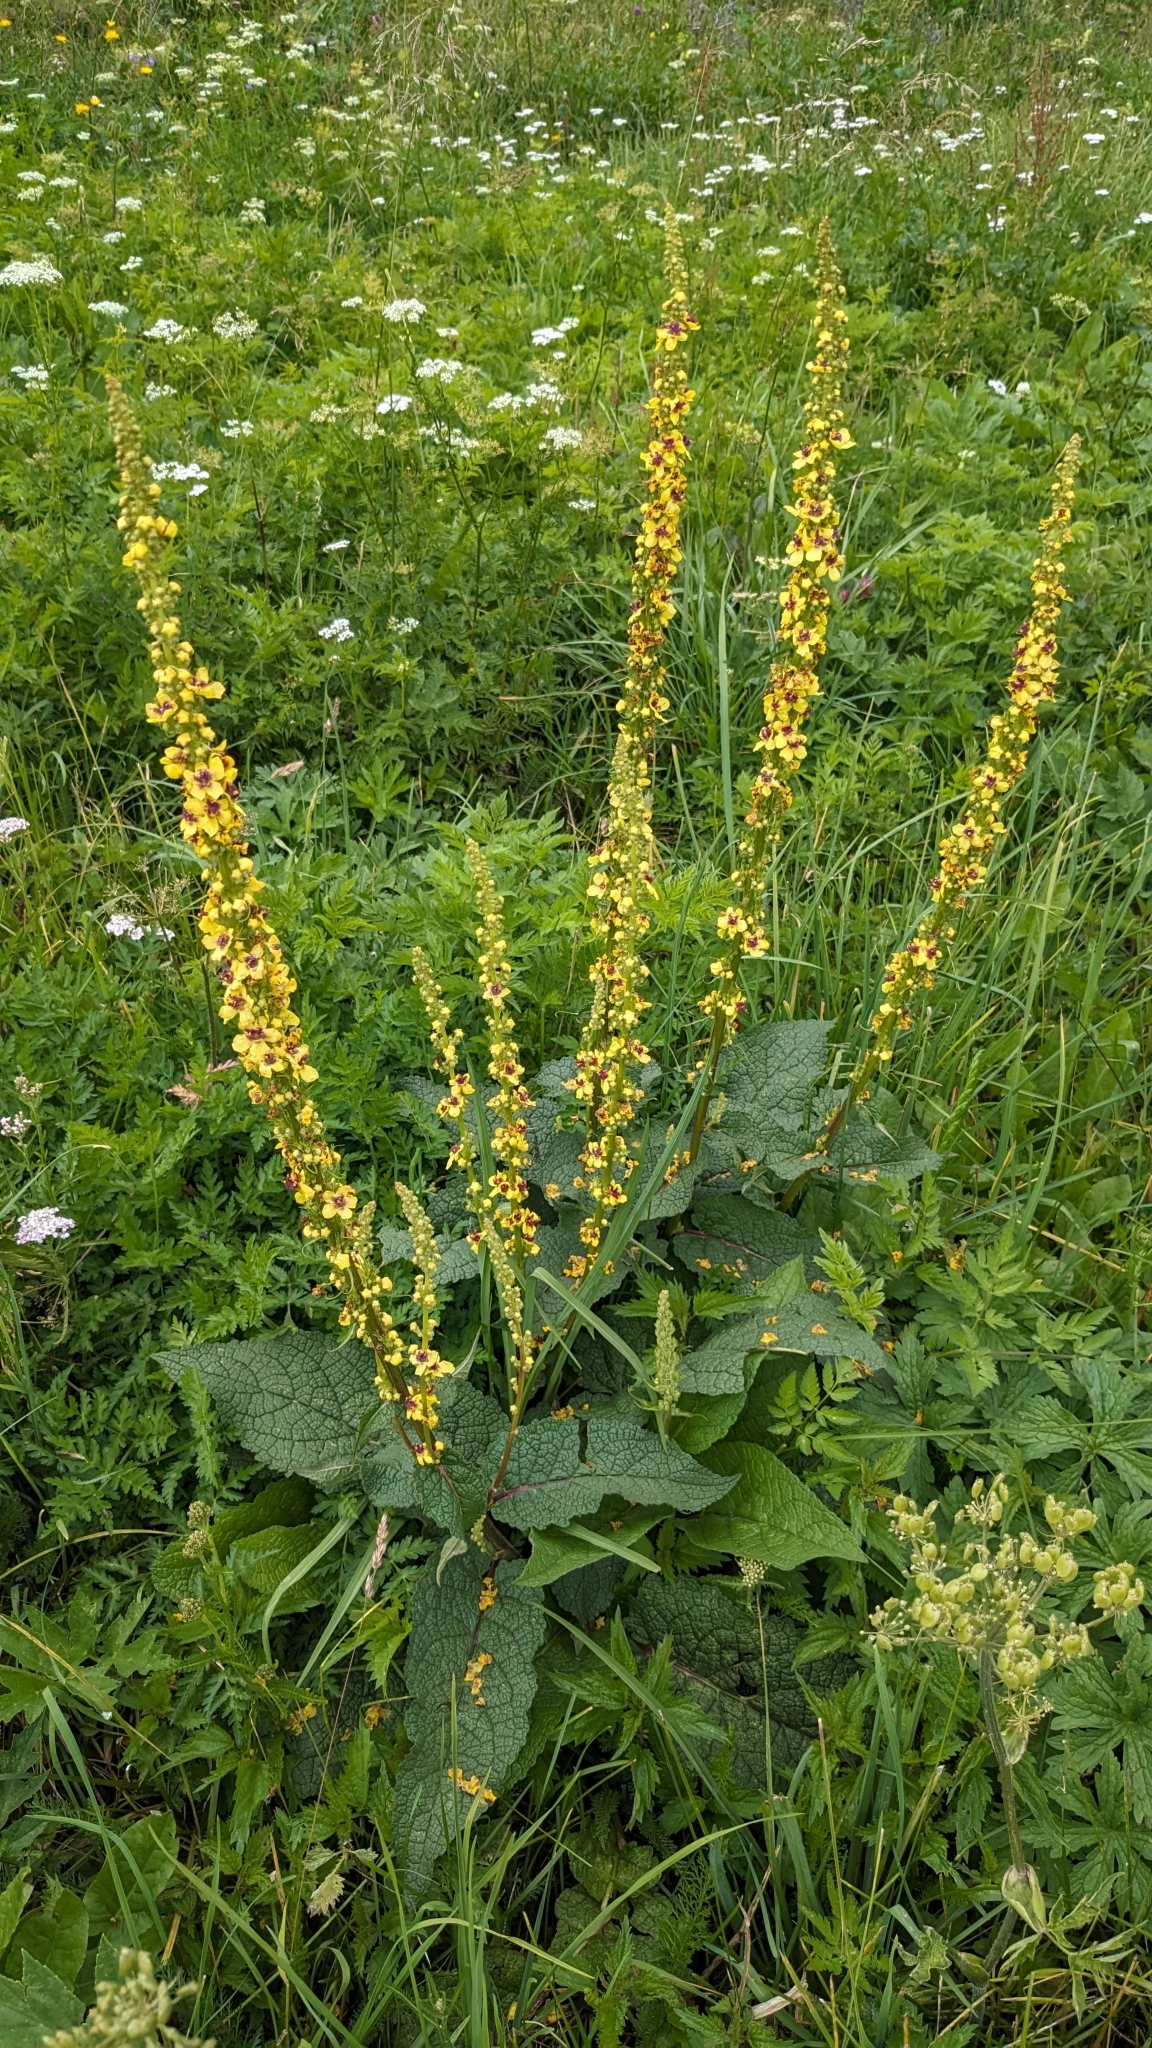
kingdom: Plantae
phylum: Tracheophyta
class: Magnoliopsida
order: Lamiales
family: Scrophulariaceae
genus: Verbascum
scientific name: Verbascum nigrum
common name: Dark mullein
